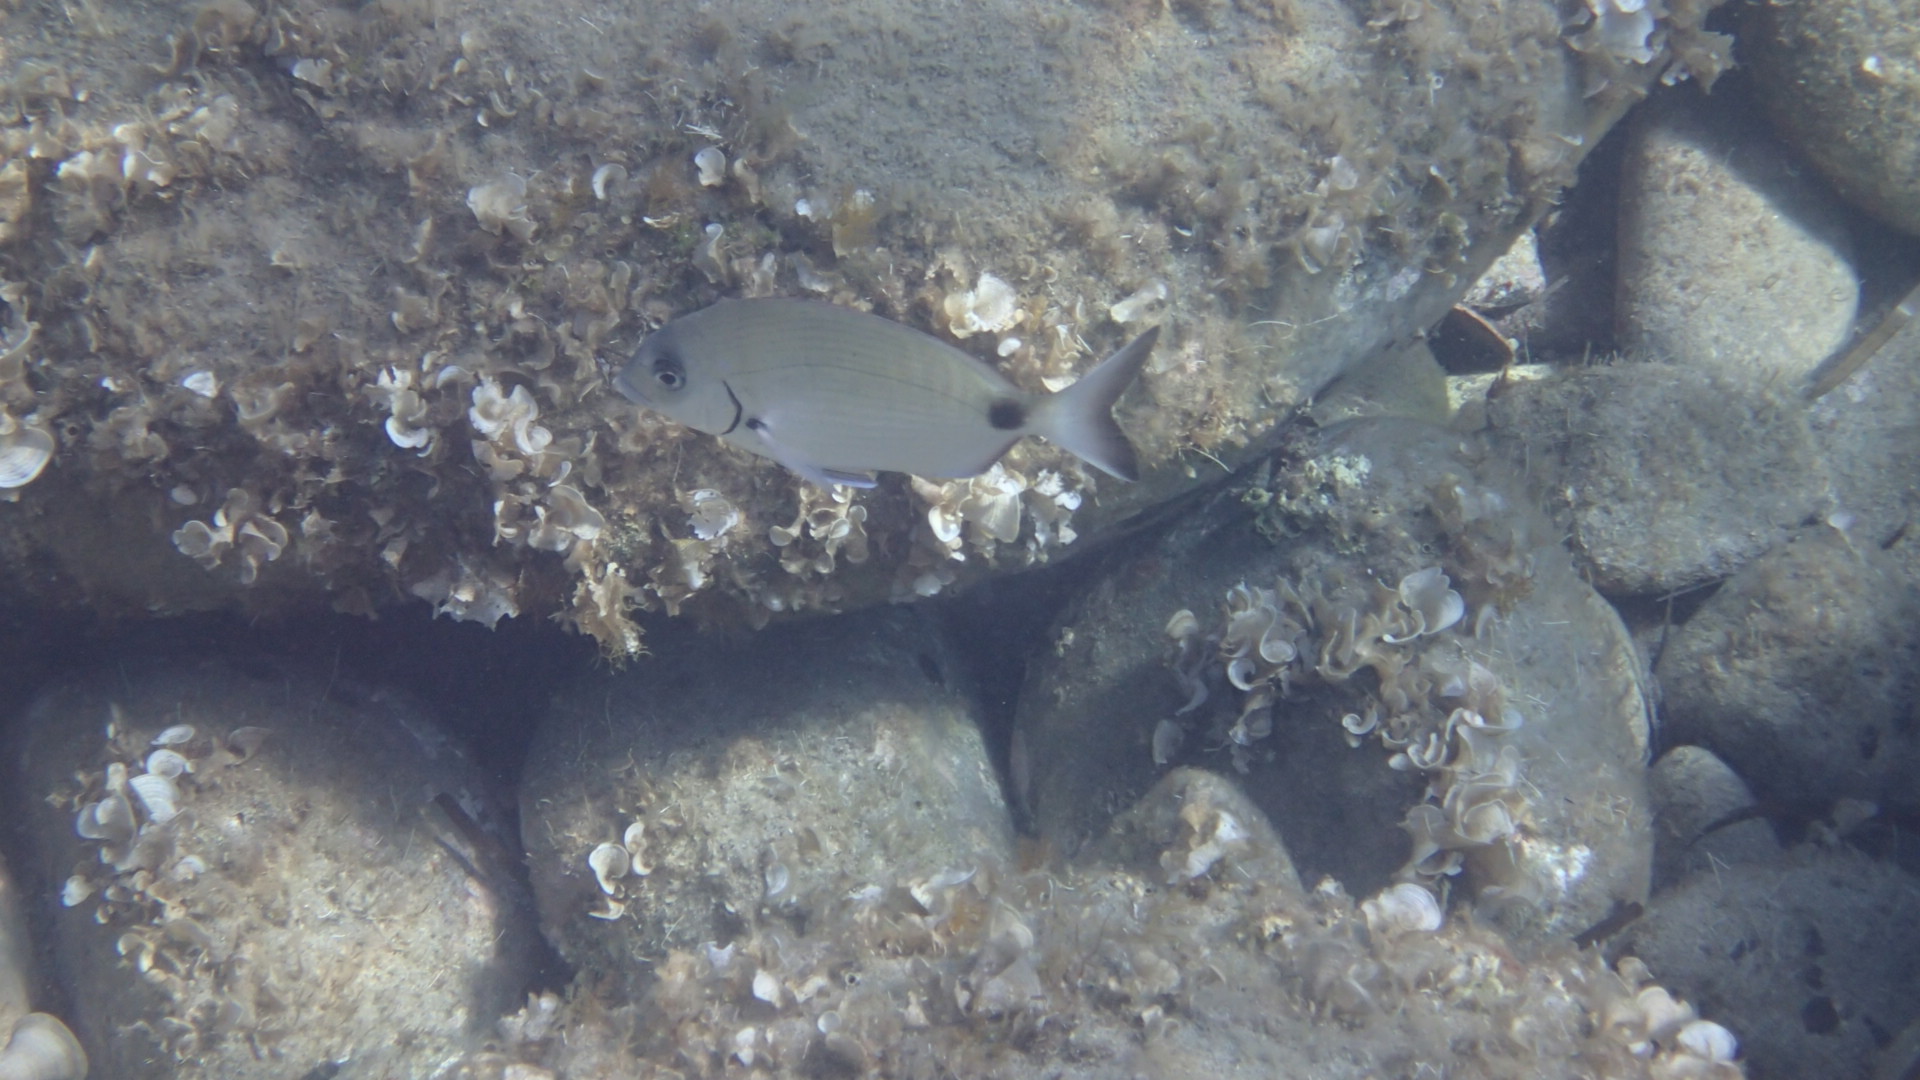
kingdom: Animalia
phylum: Chordata
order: Perciformes
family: Sparidae
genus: Diplodus
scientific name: Diplodus sargus
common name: White seabream
